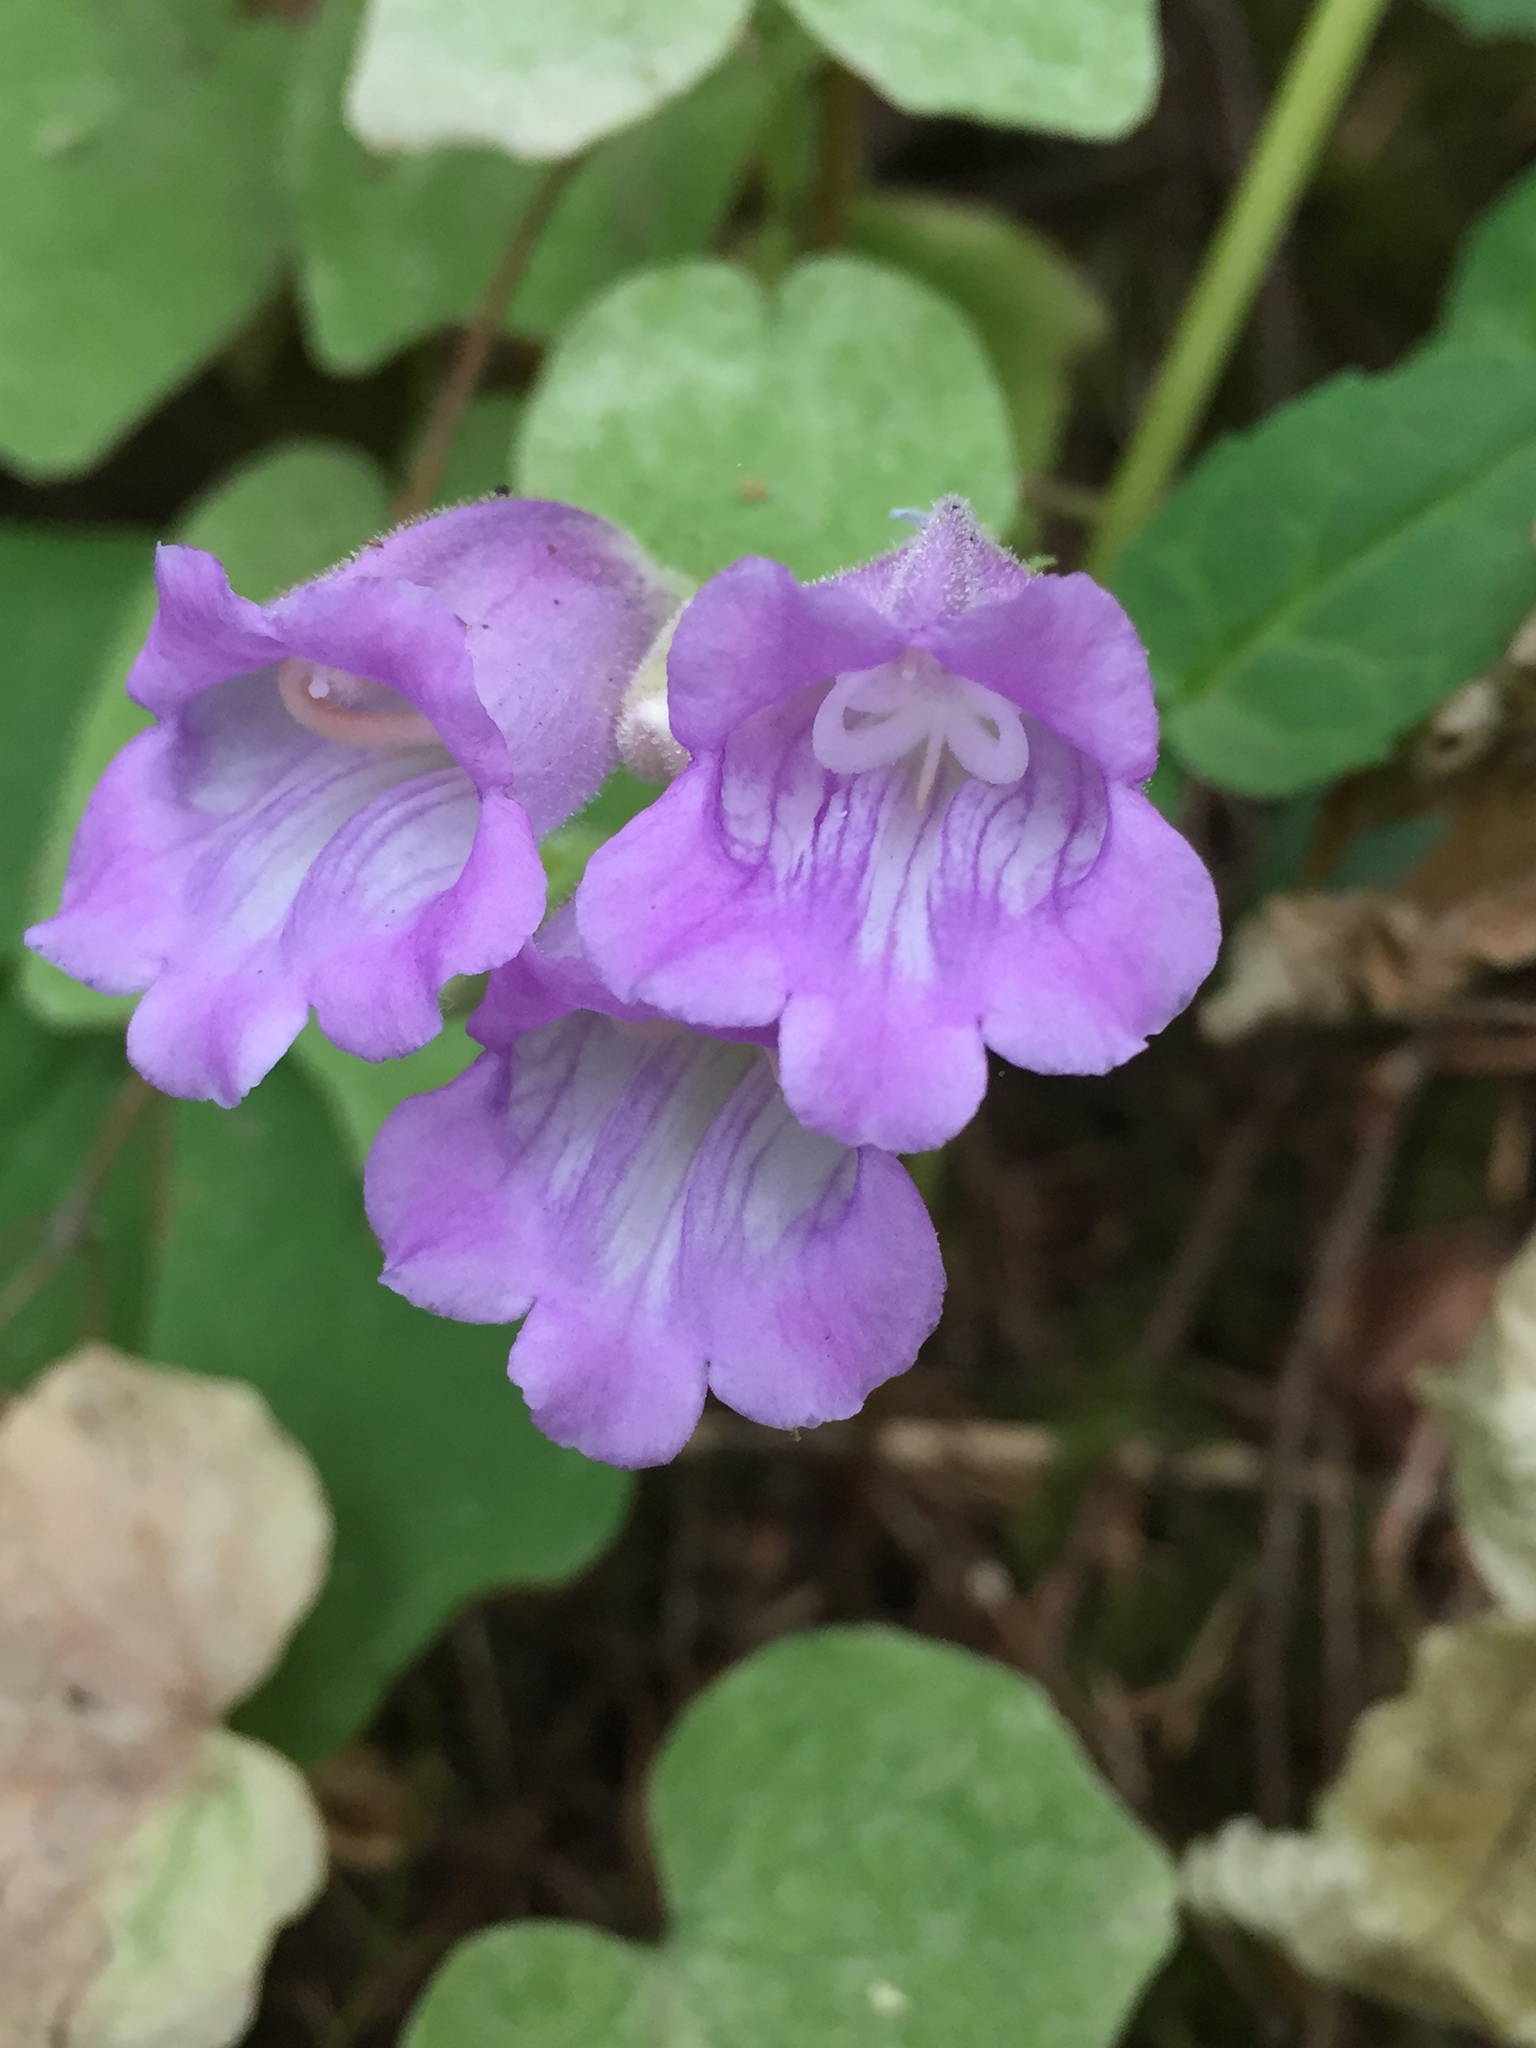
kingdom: Plantae
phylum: Tracheophyta
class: Magnoliopsida
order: Lamiales
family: Plantaginaceae
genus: Nothochelone
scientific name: Nothochelone nemorosa
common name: Woodland beardtongue
